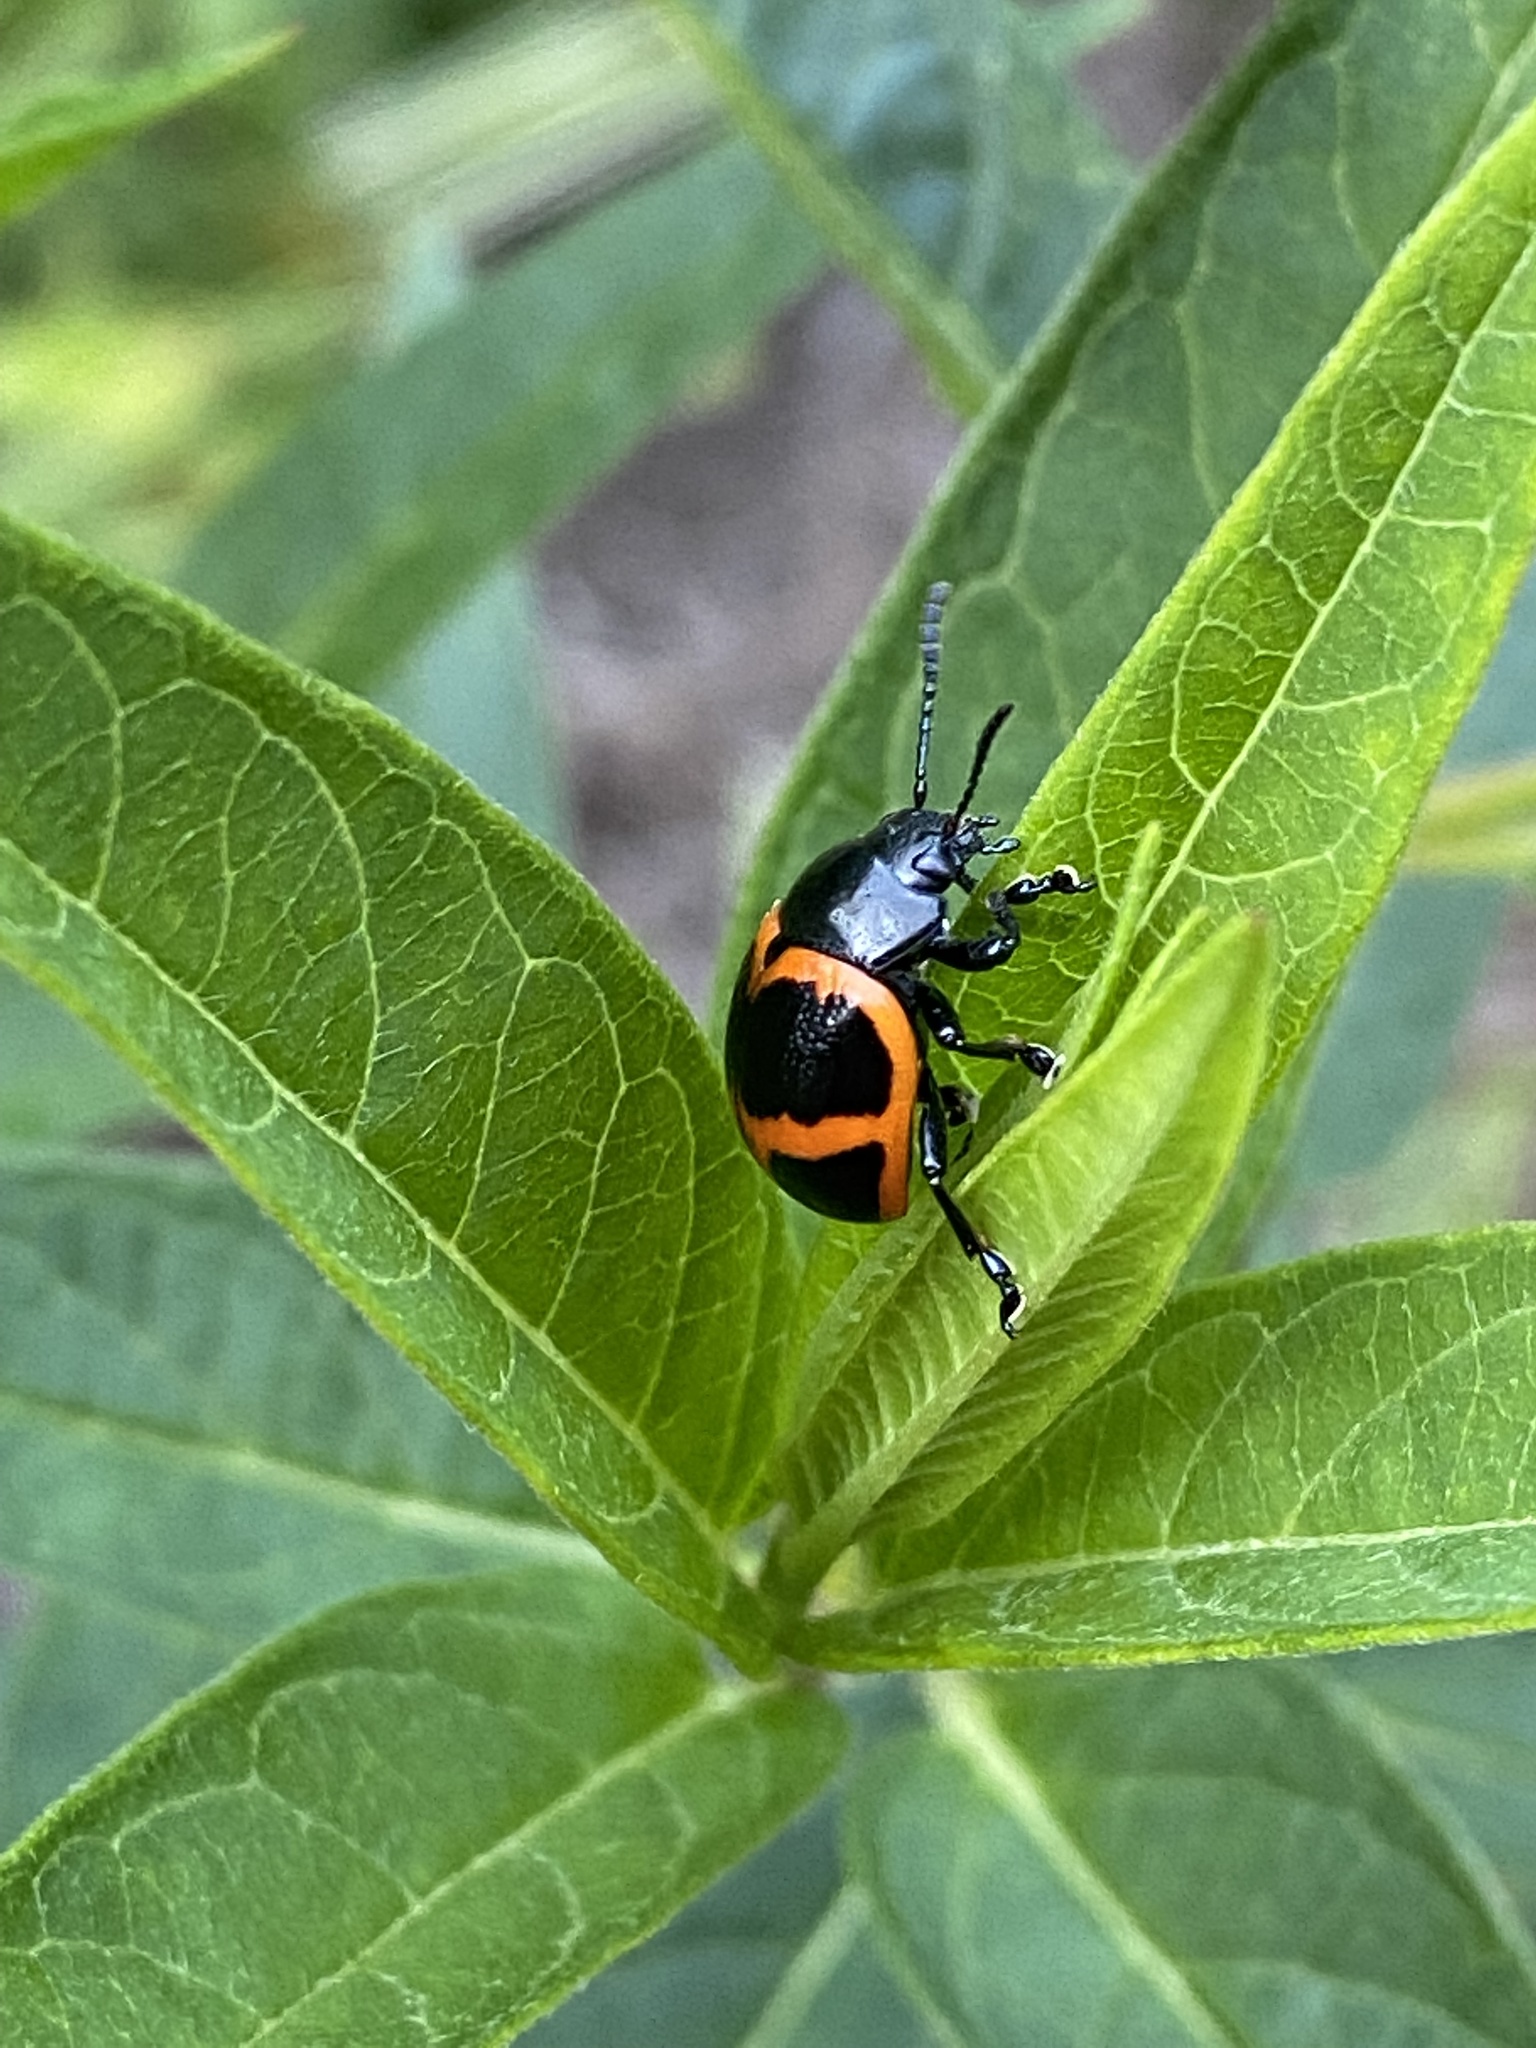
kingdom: Animalia
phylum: Arthropoda
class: Insecta
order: Coleoptera
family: Chrysomelidae
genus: Labidomera
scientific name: Labidomera clivicollis
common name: Swamp milkweed leaf beetle
